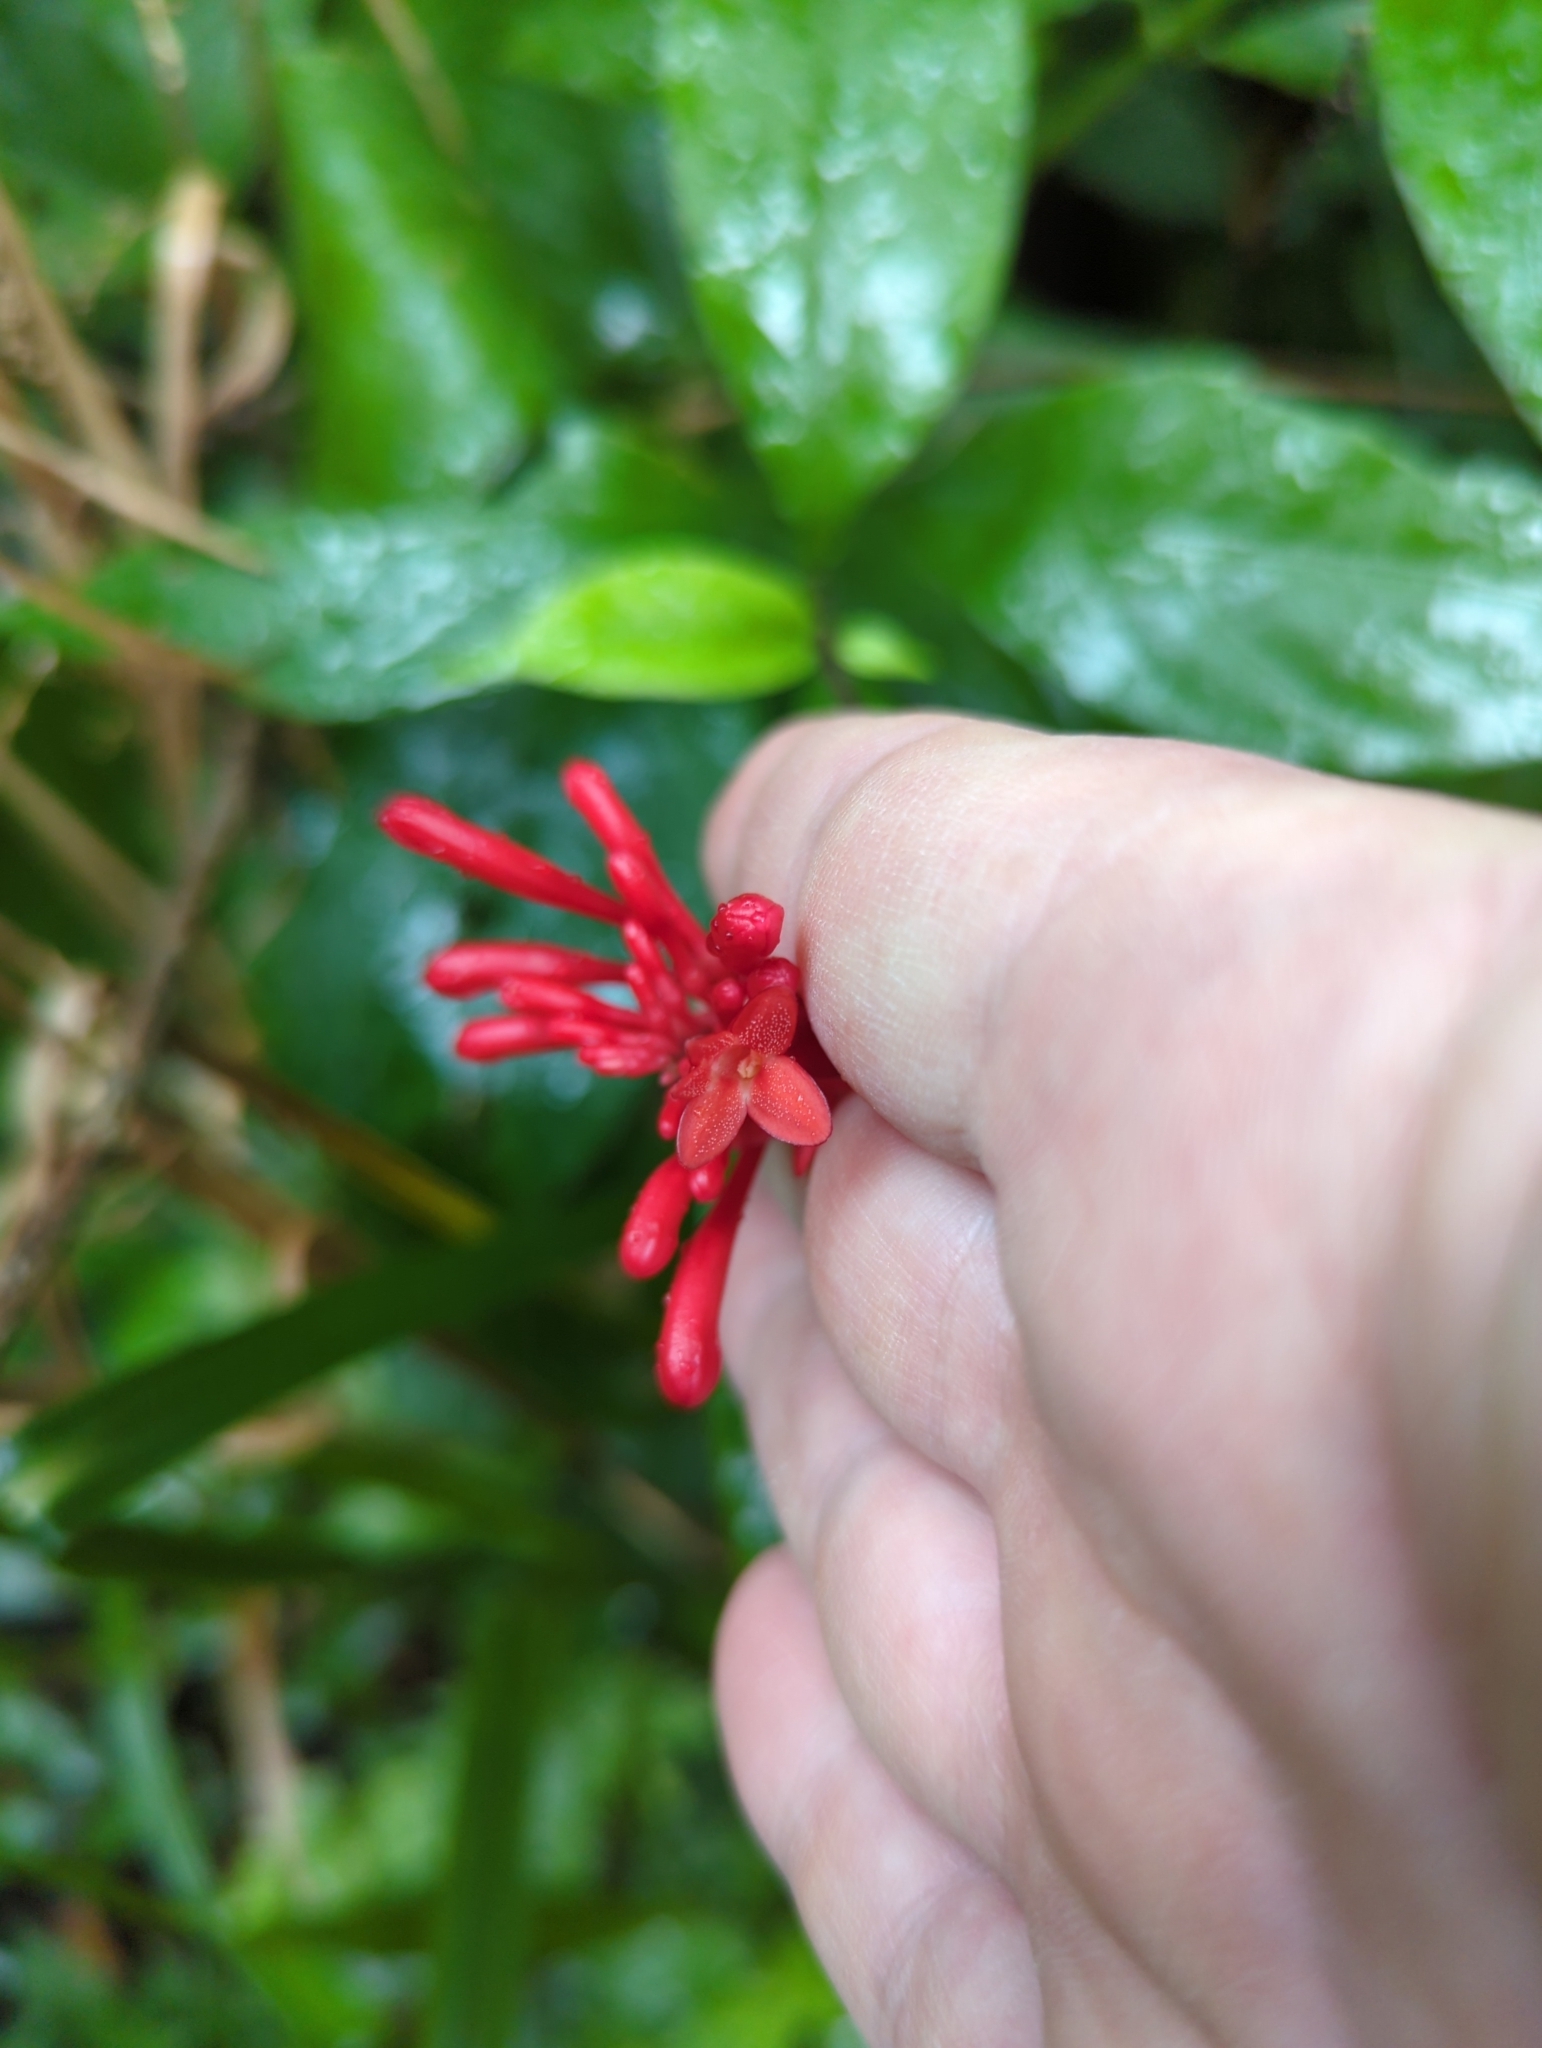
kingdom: Plantae
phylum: Tracheophyta
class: Magnoliopsida
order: Lamiales
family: Acanthaceae
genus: Odontonema
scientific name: Odontonema cuspidatum
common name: Mottled toothedthread
